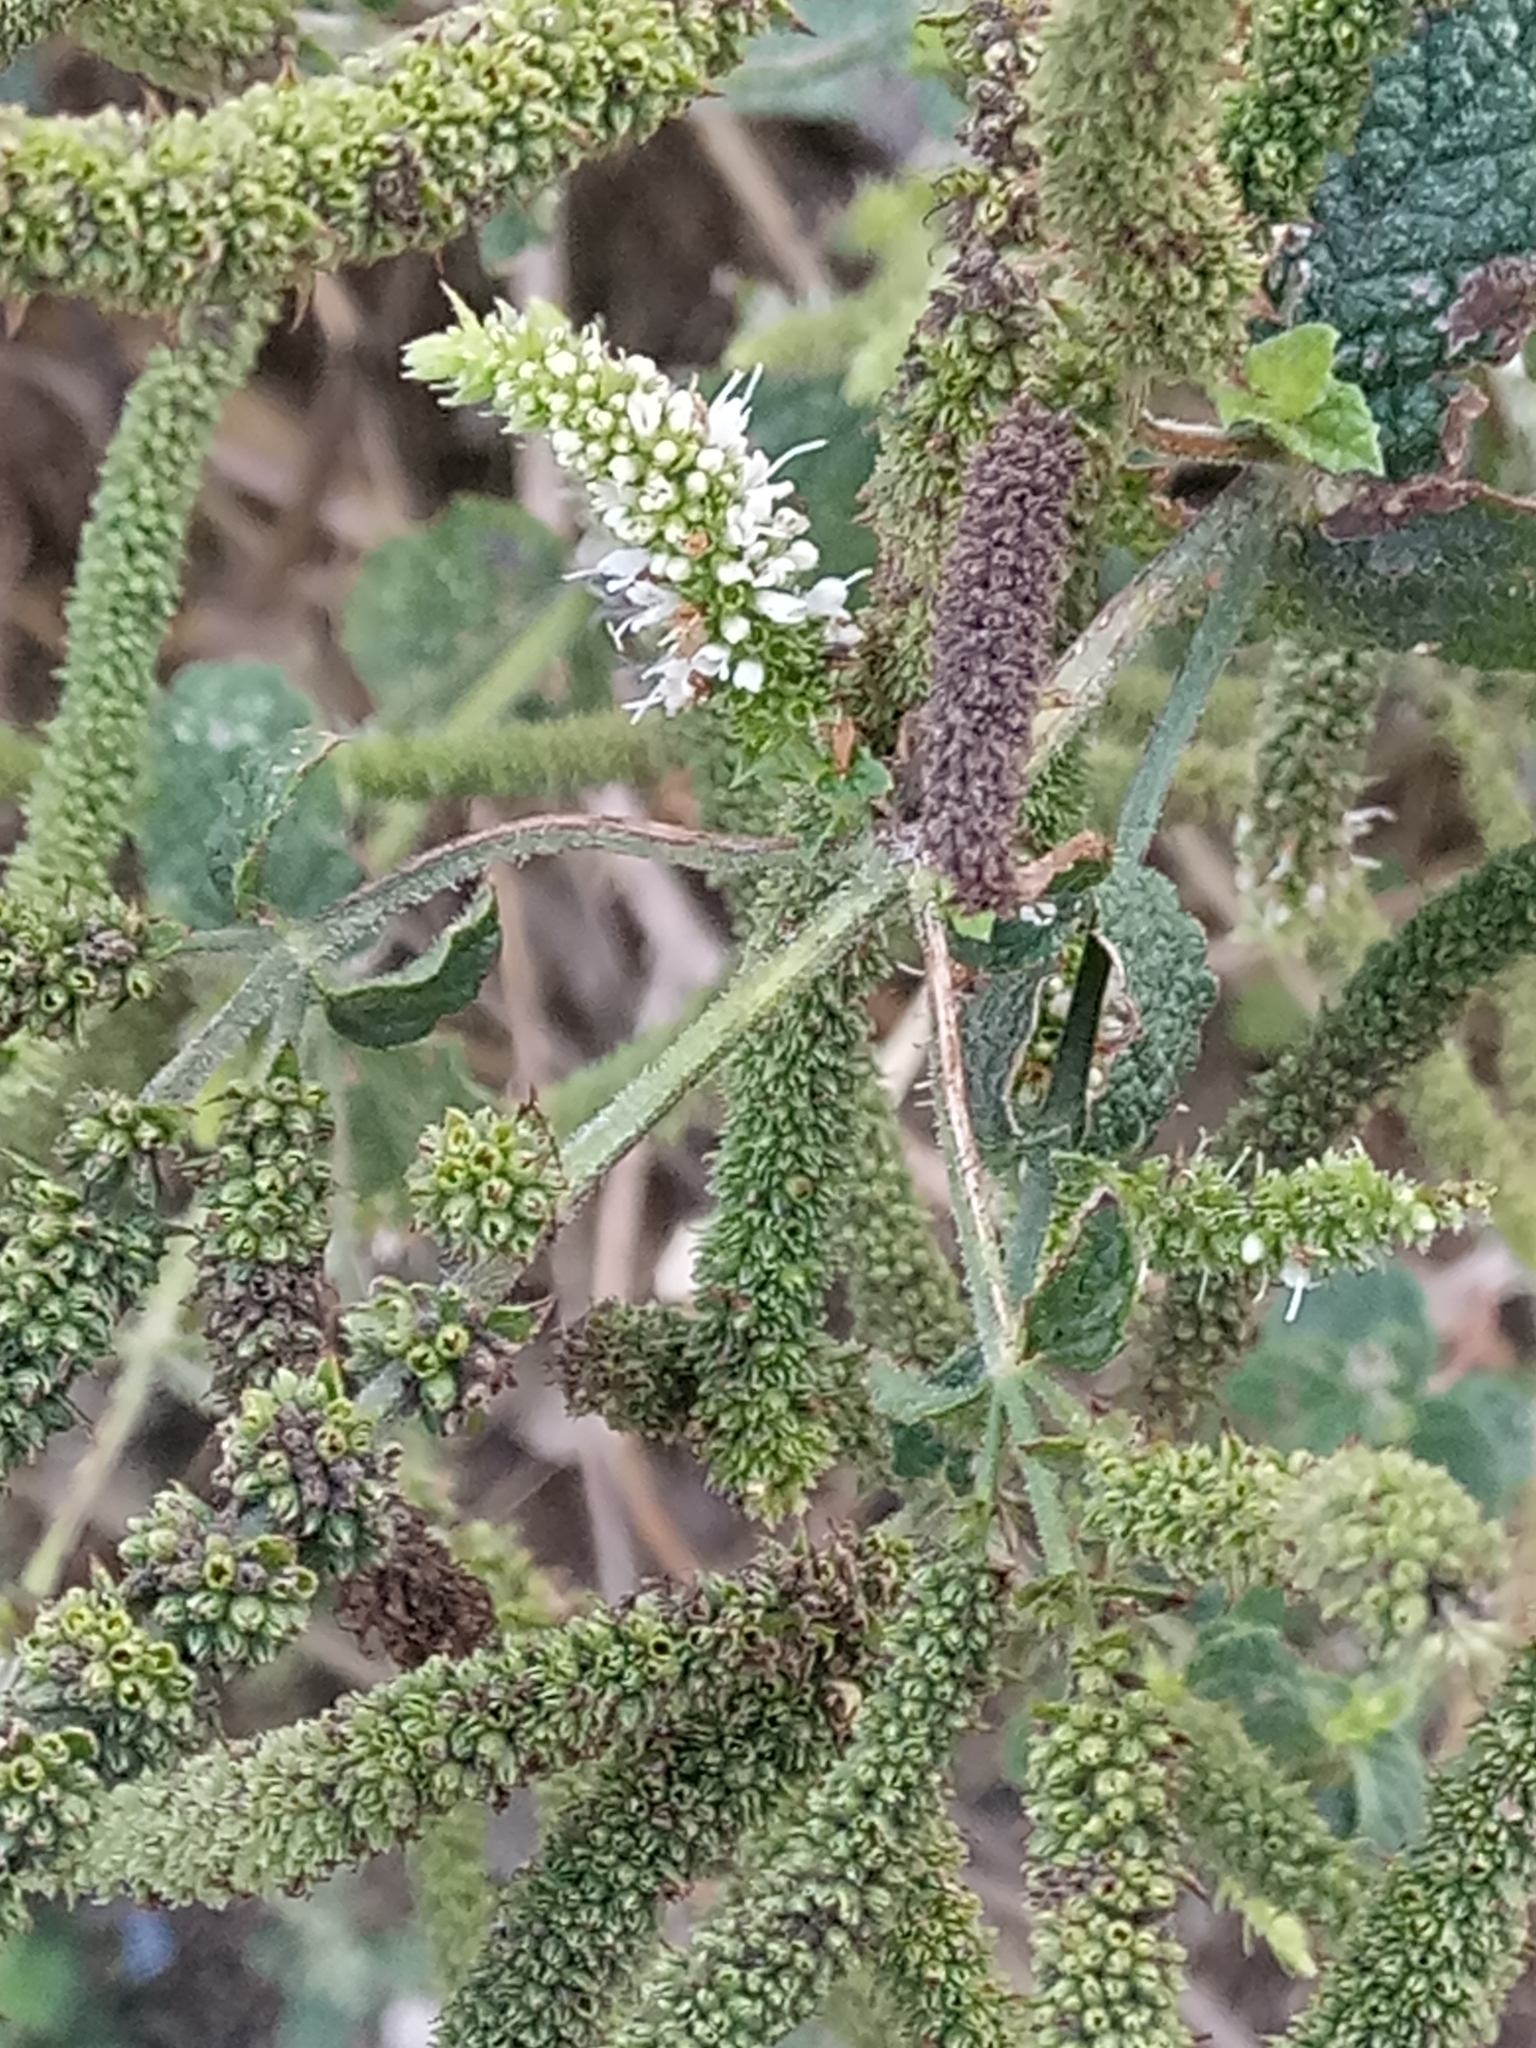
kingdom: Plantae
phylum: Tracheophyta
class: Magnoliopsida
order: Lamiales
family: Lamiaceae
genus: Mentha
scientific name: Mentha suaveolens
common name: Apple mint
